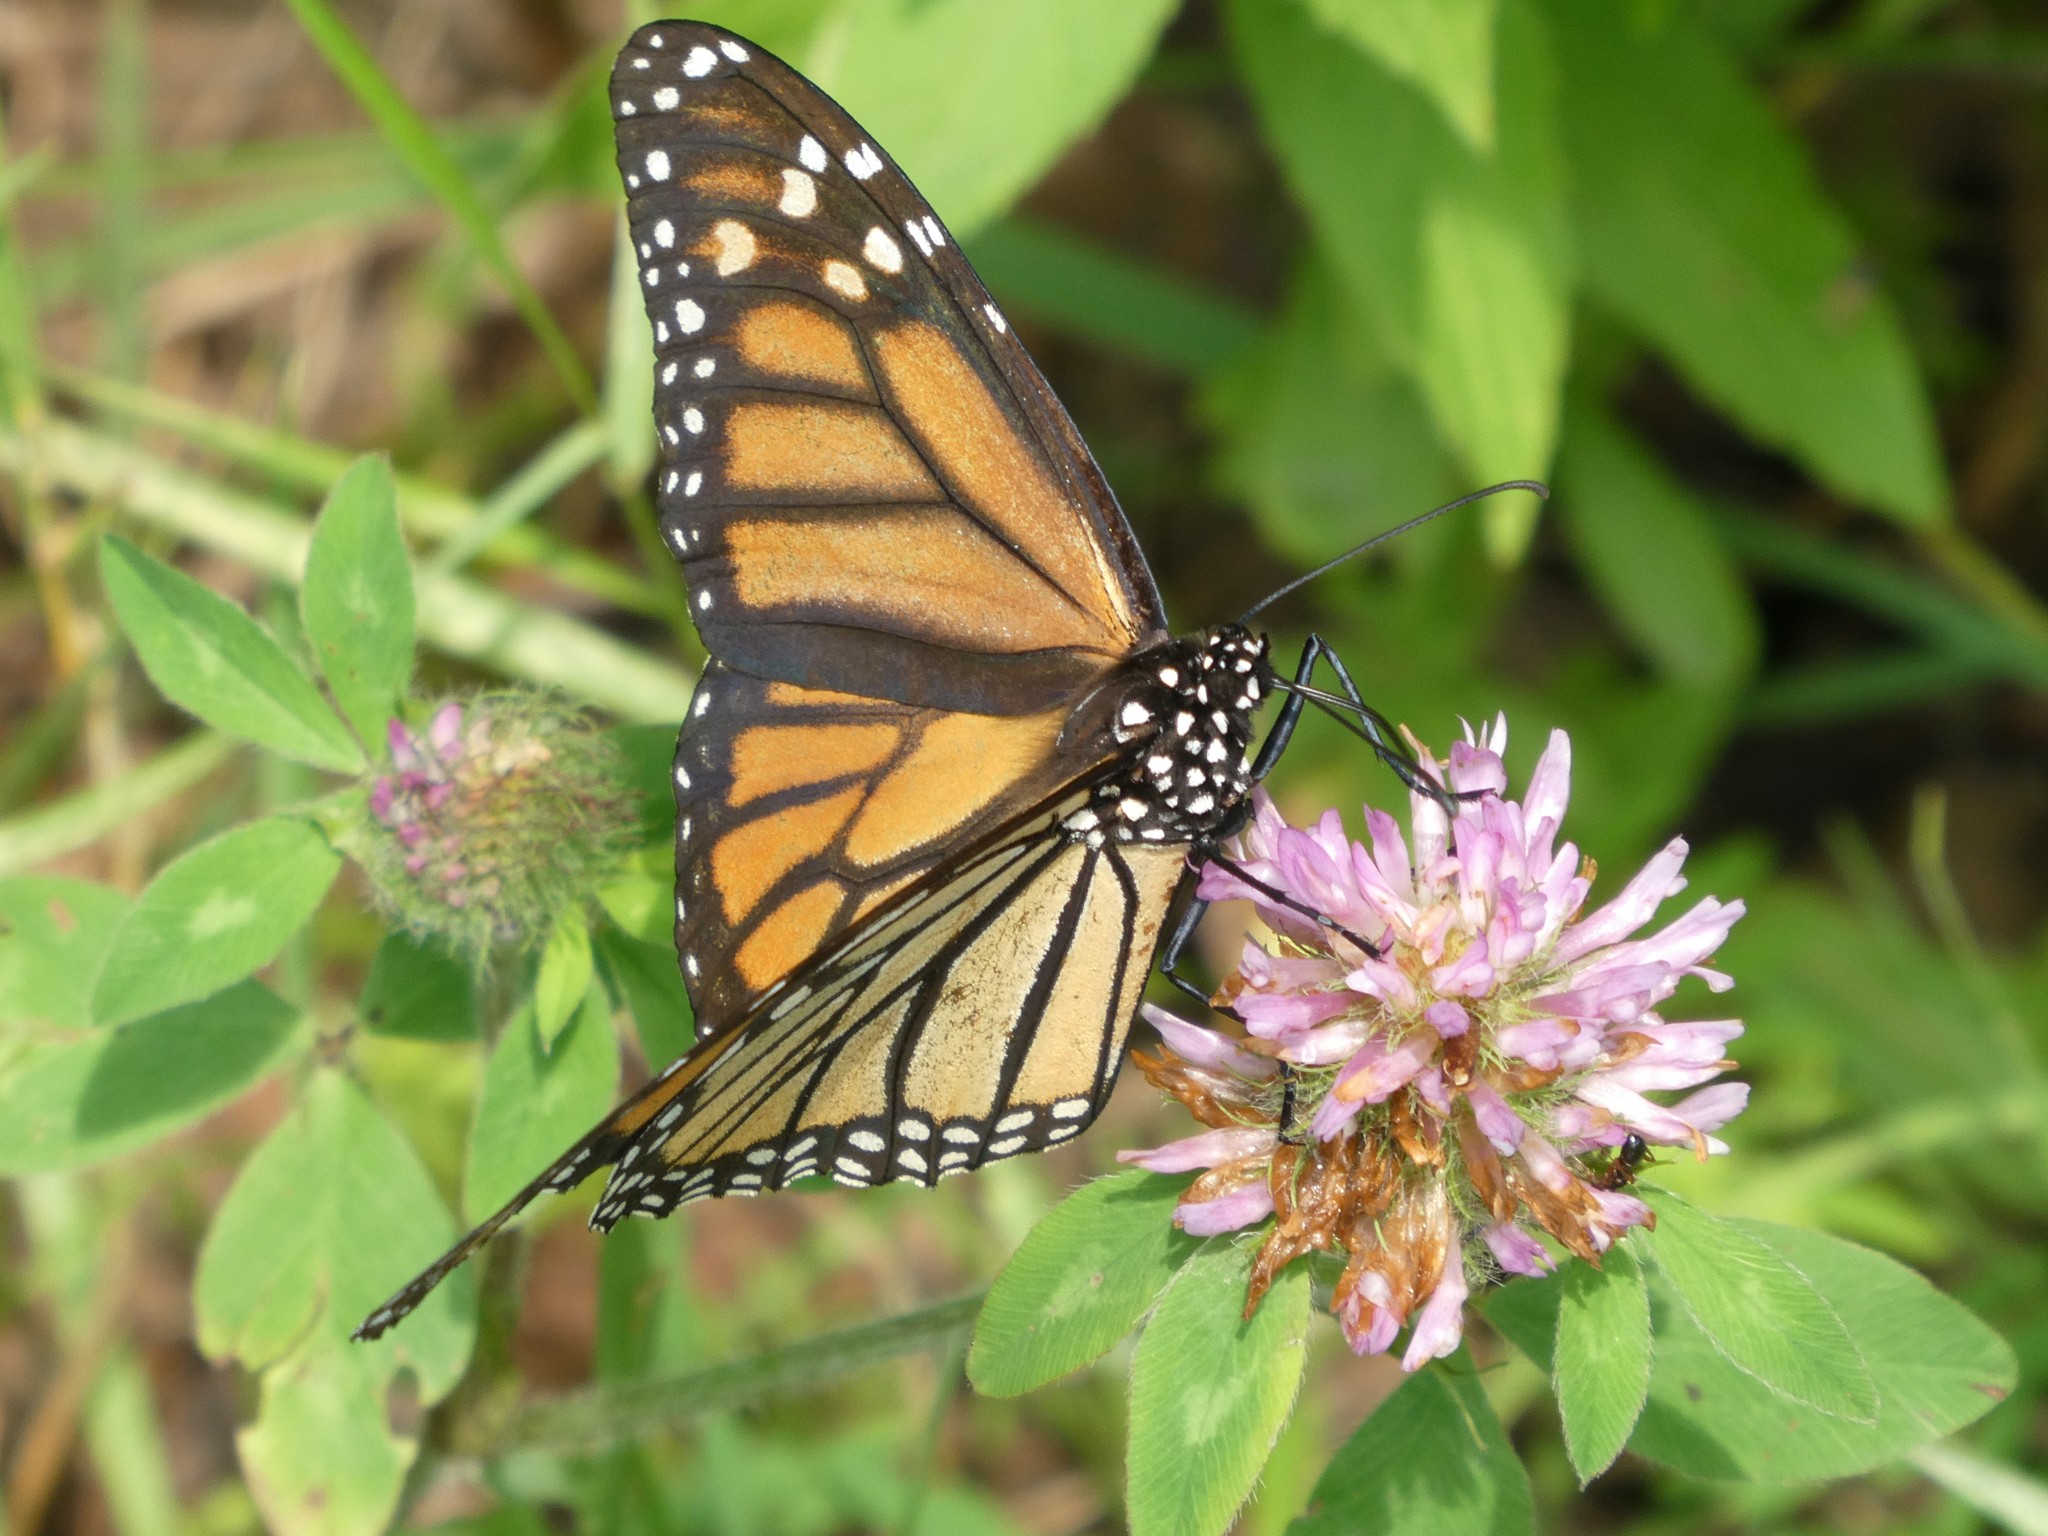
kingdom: Animalia
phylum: Arthropoda
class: Insecta
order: Lepidoptera
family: Nymphalidae
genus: Danaus
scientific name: Danaus plexippus
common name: Monarch
